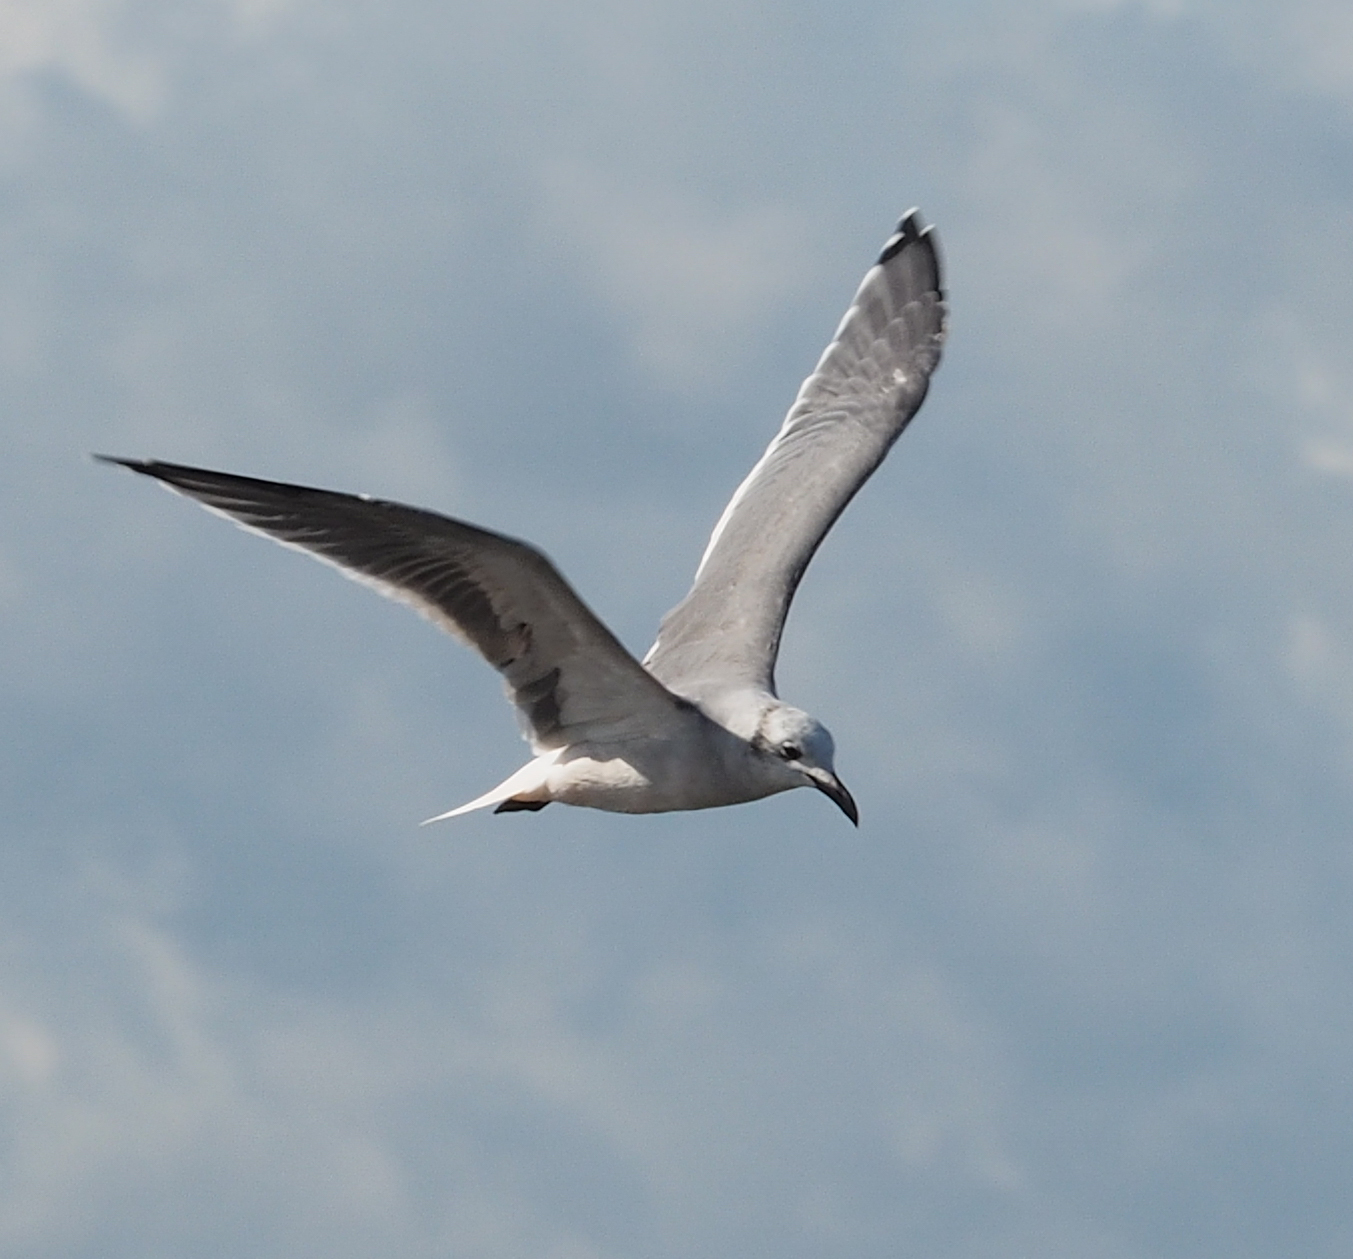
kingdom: Animalia
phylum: Chordata
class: Aves
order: Charadriiformes
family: Laridae
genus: Leucophaeus
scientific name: Leucophaeus atricilla
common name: Laughing gull
